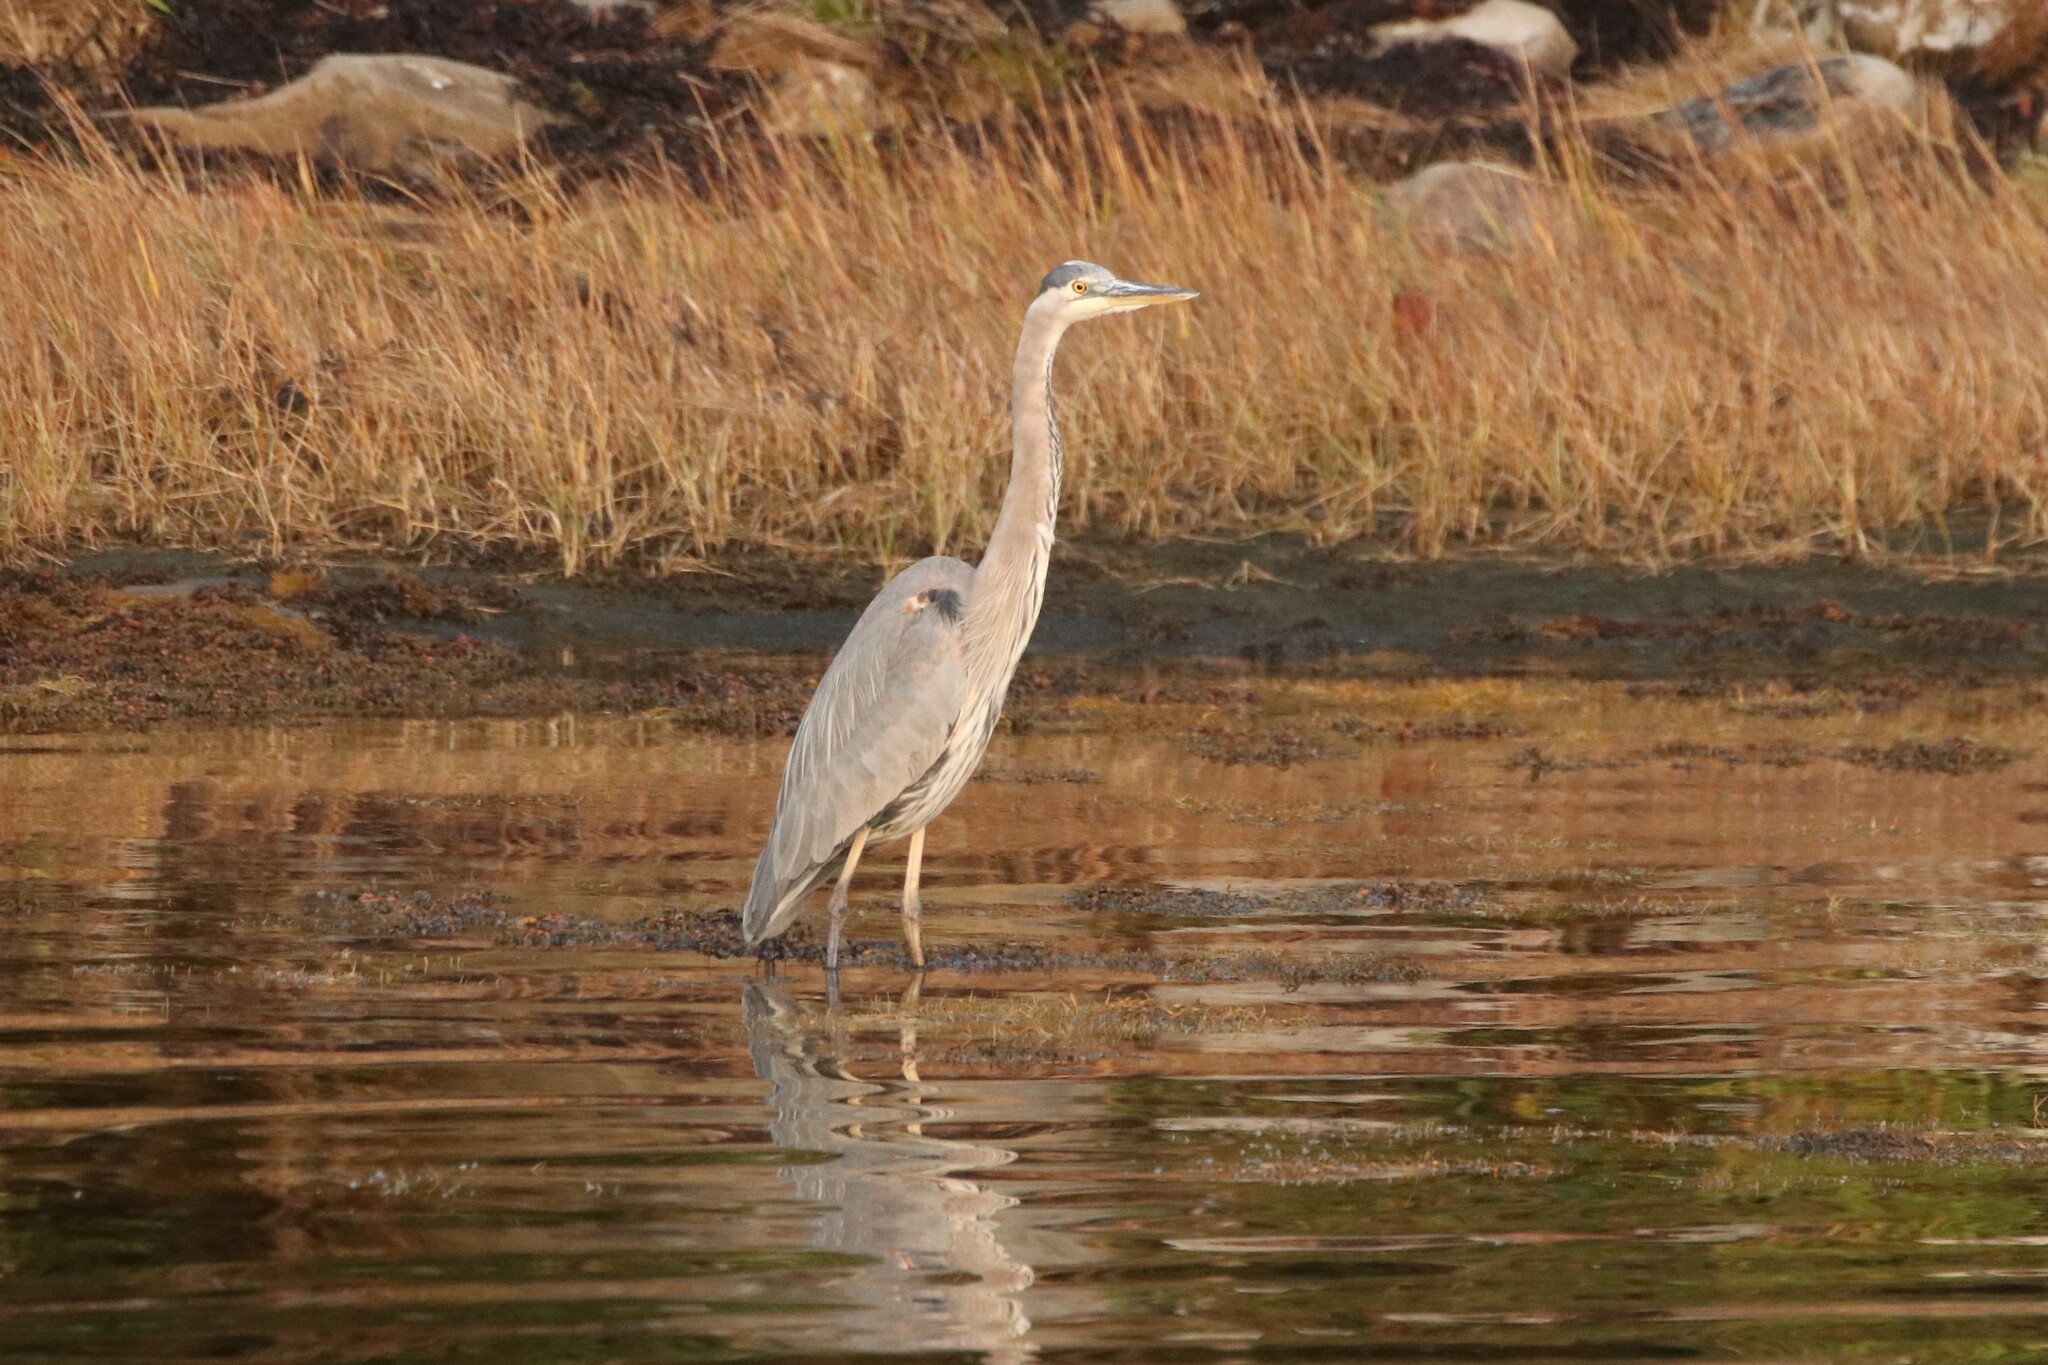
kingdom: Animalia
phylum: Chordata
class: Aves
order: Pelecaniformes
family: Ardeidae
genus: Ardea
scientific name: Ardea herodias
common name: Great blue heron
